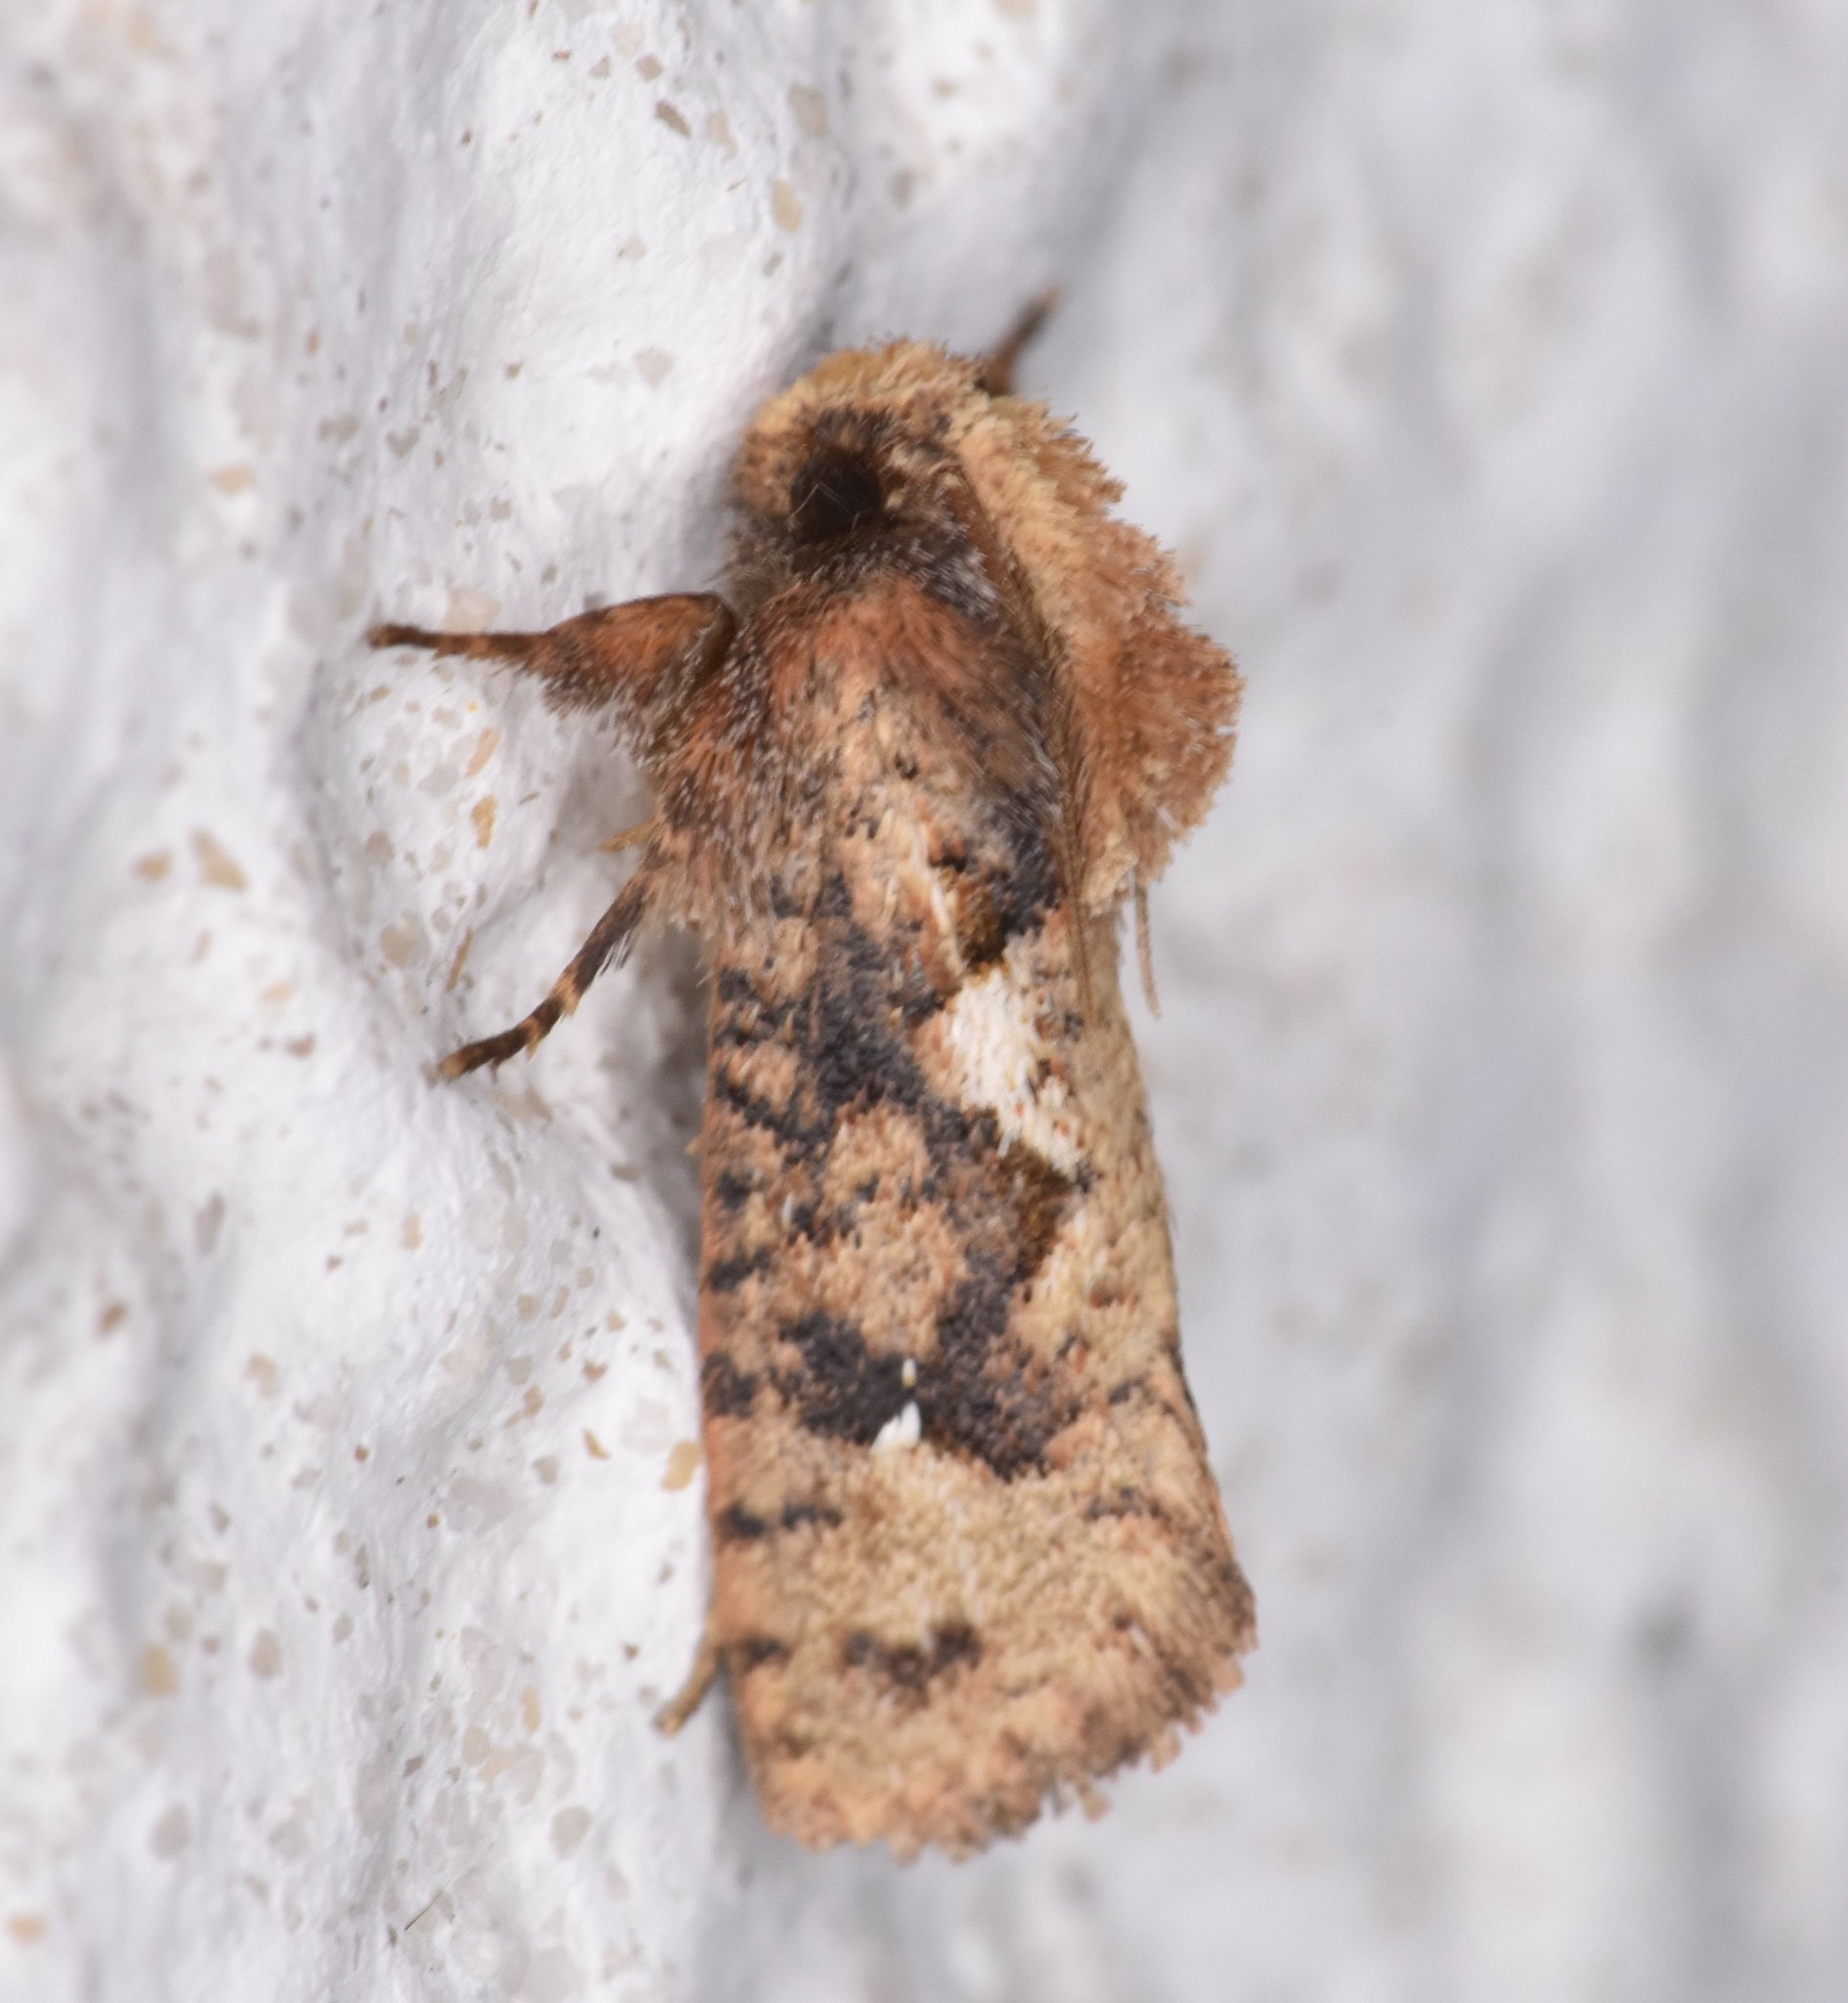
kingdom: Animalia
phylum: Arthropoda
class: Insecta
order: Lepidoptera
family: Tineidae
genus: Acrolophus
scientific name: Acrolophus walsinghami
